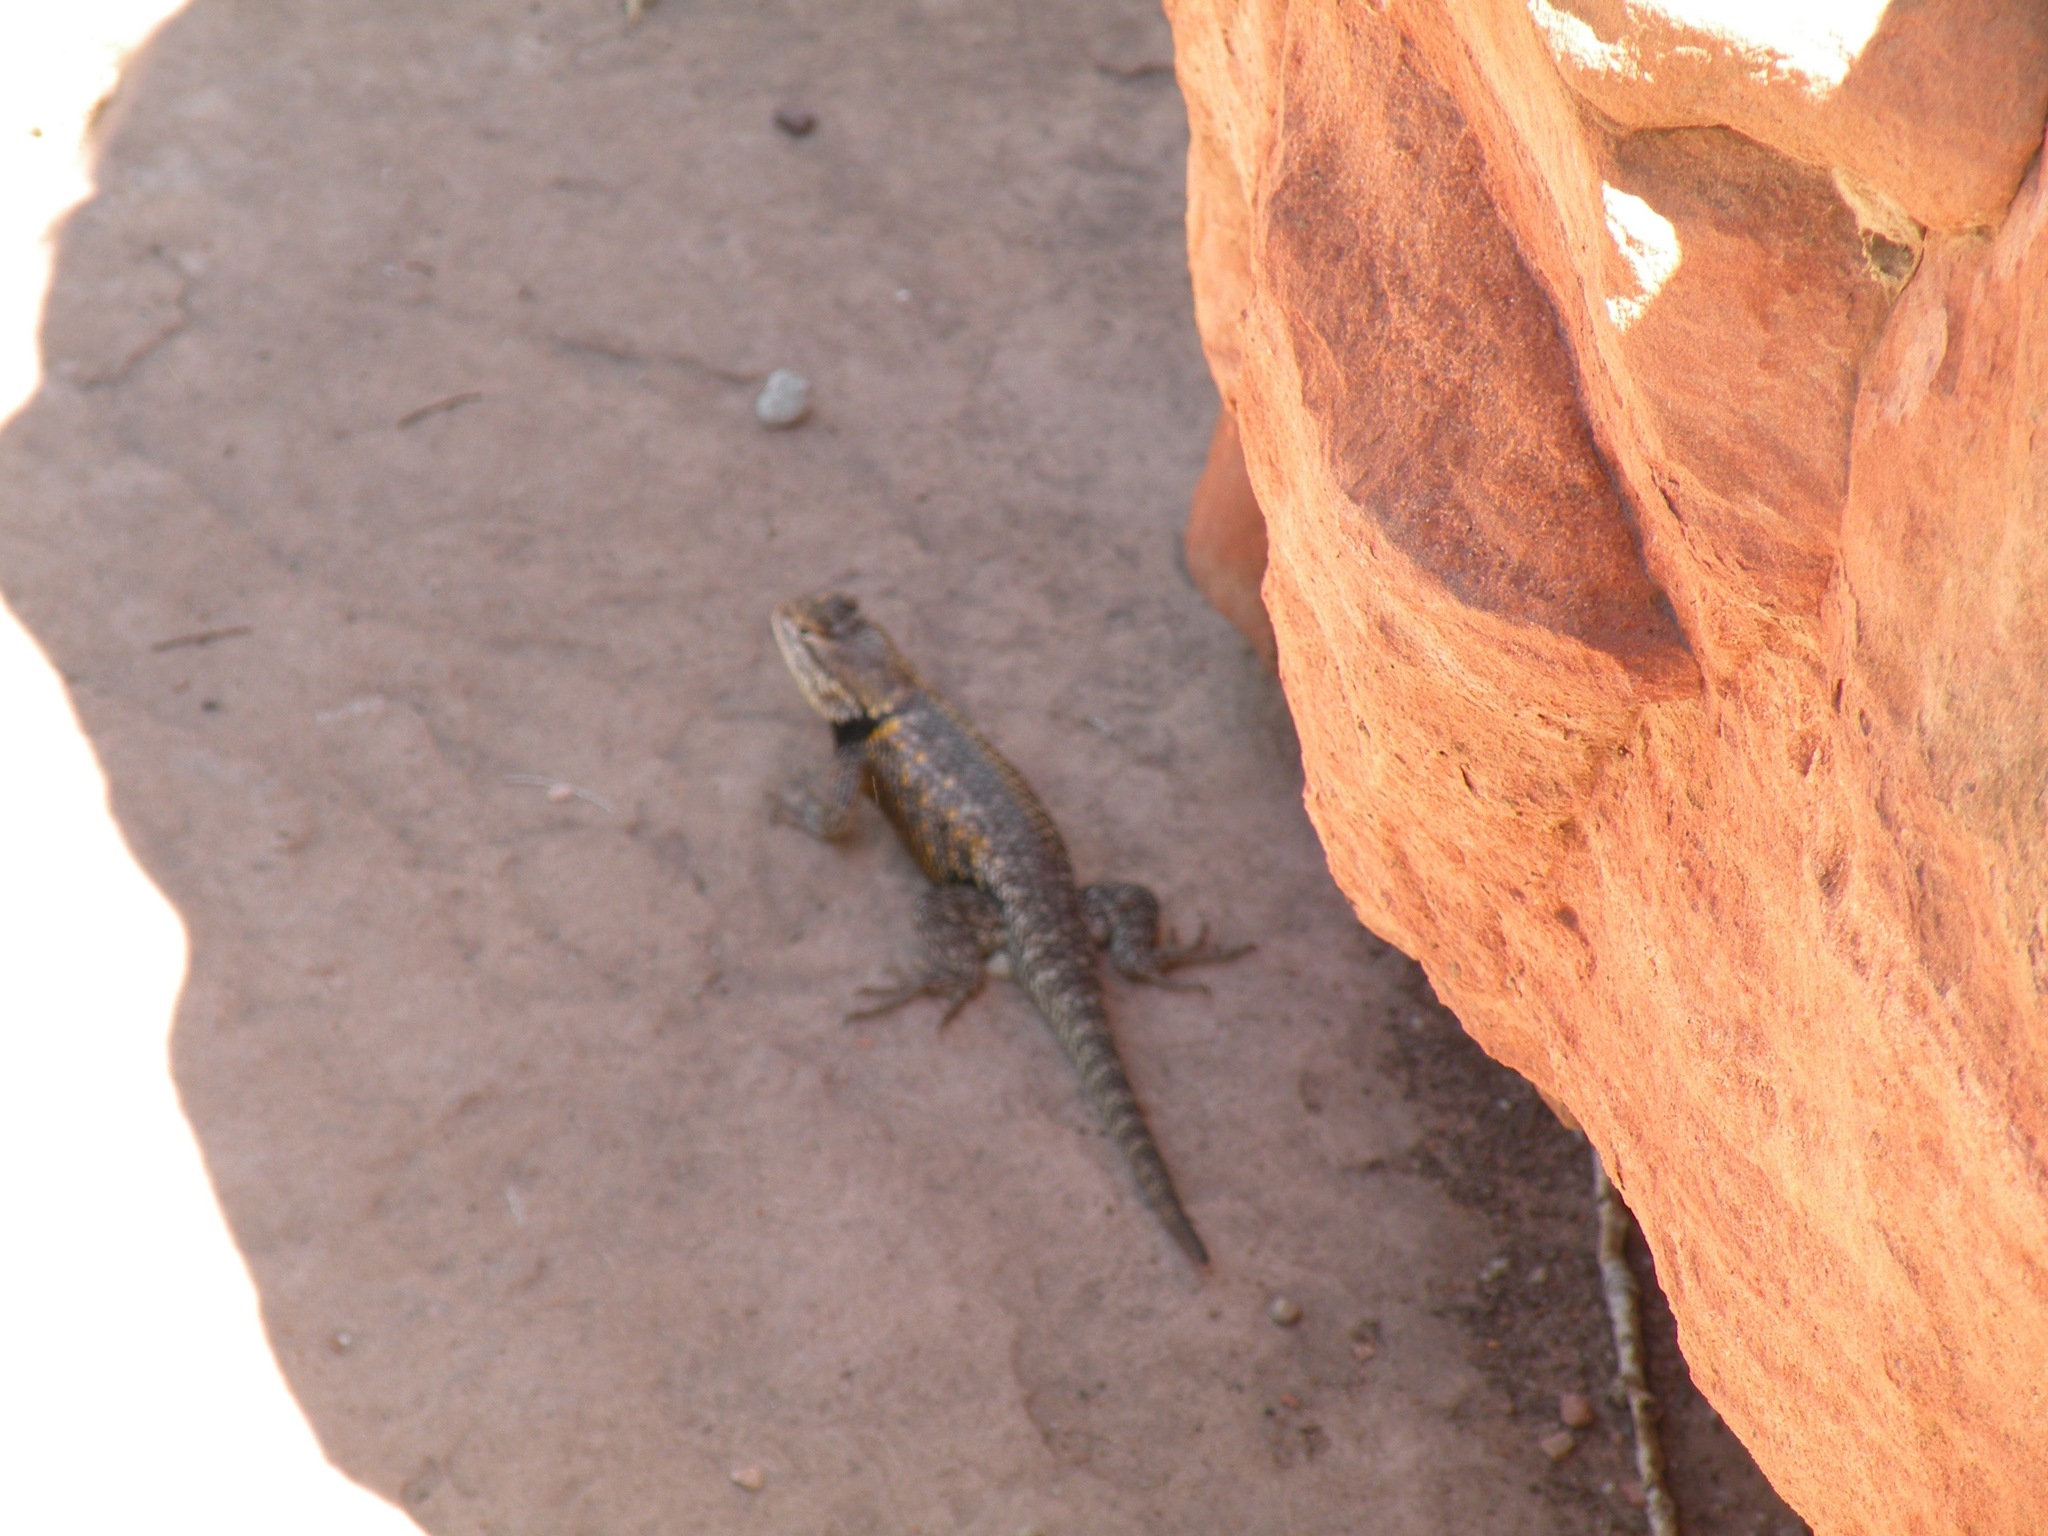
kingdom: Animalia
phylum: Chordata
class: Squamata
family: Phrynosomatidae
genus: Sceloporus
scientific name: Sceloporus uniformis
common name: Yellow-backed spiny lizard
